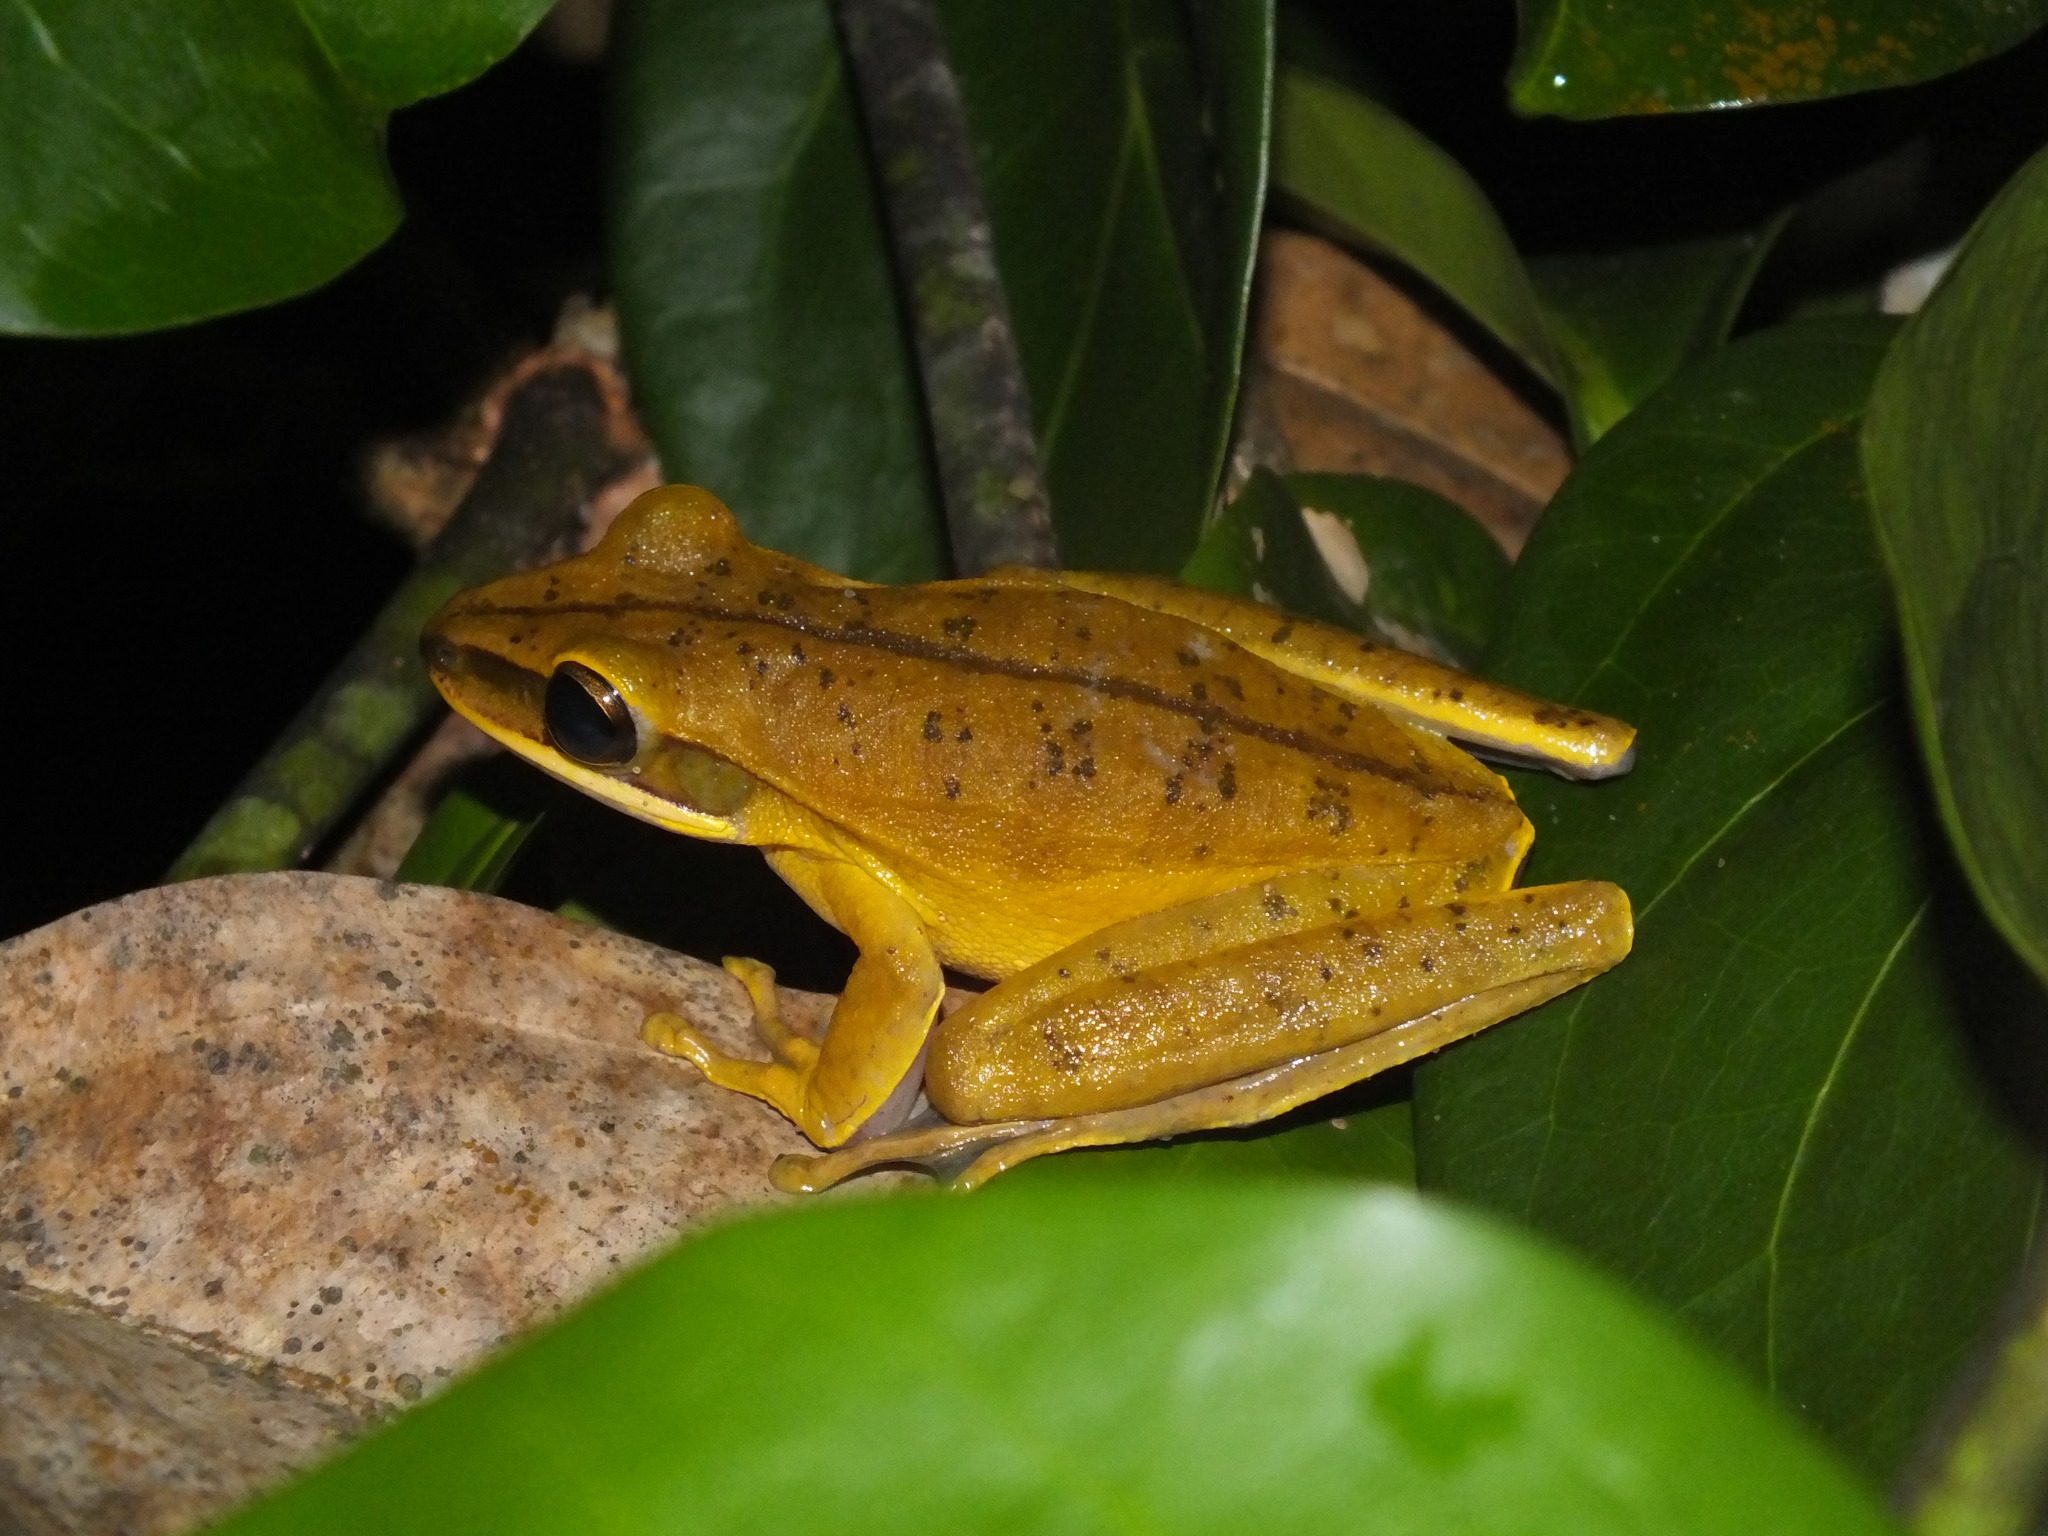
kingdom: Animalia
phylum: Chordata
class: Amphibia
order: Anura
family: Hylidae
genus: Boana
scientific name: Boana lanciformis
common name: Rana lanceolada commún
